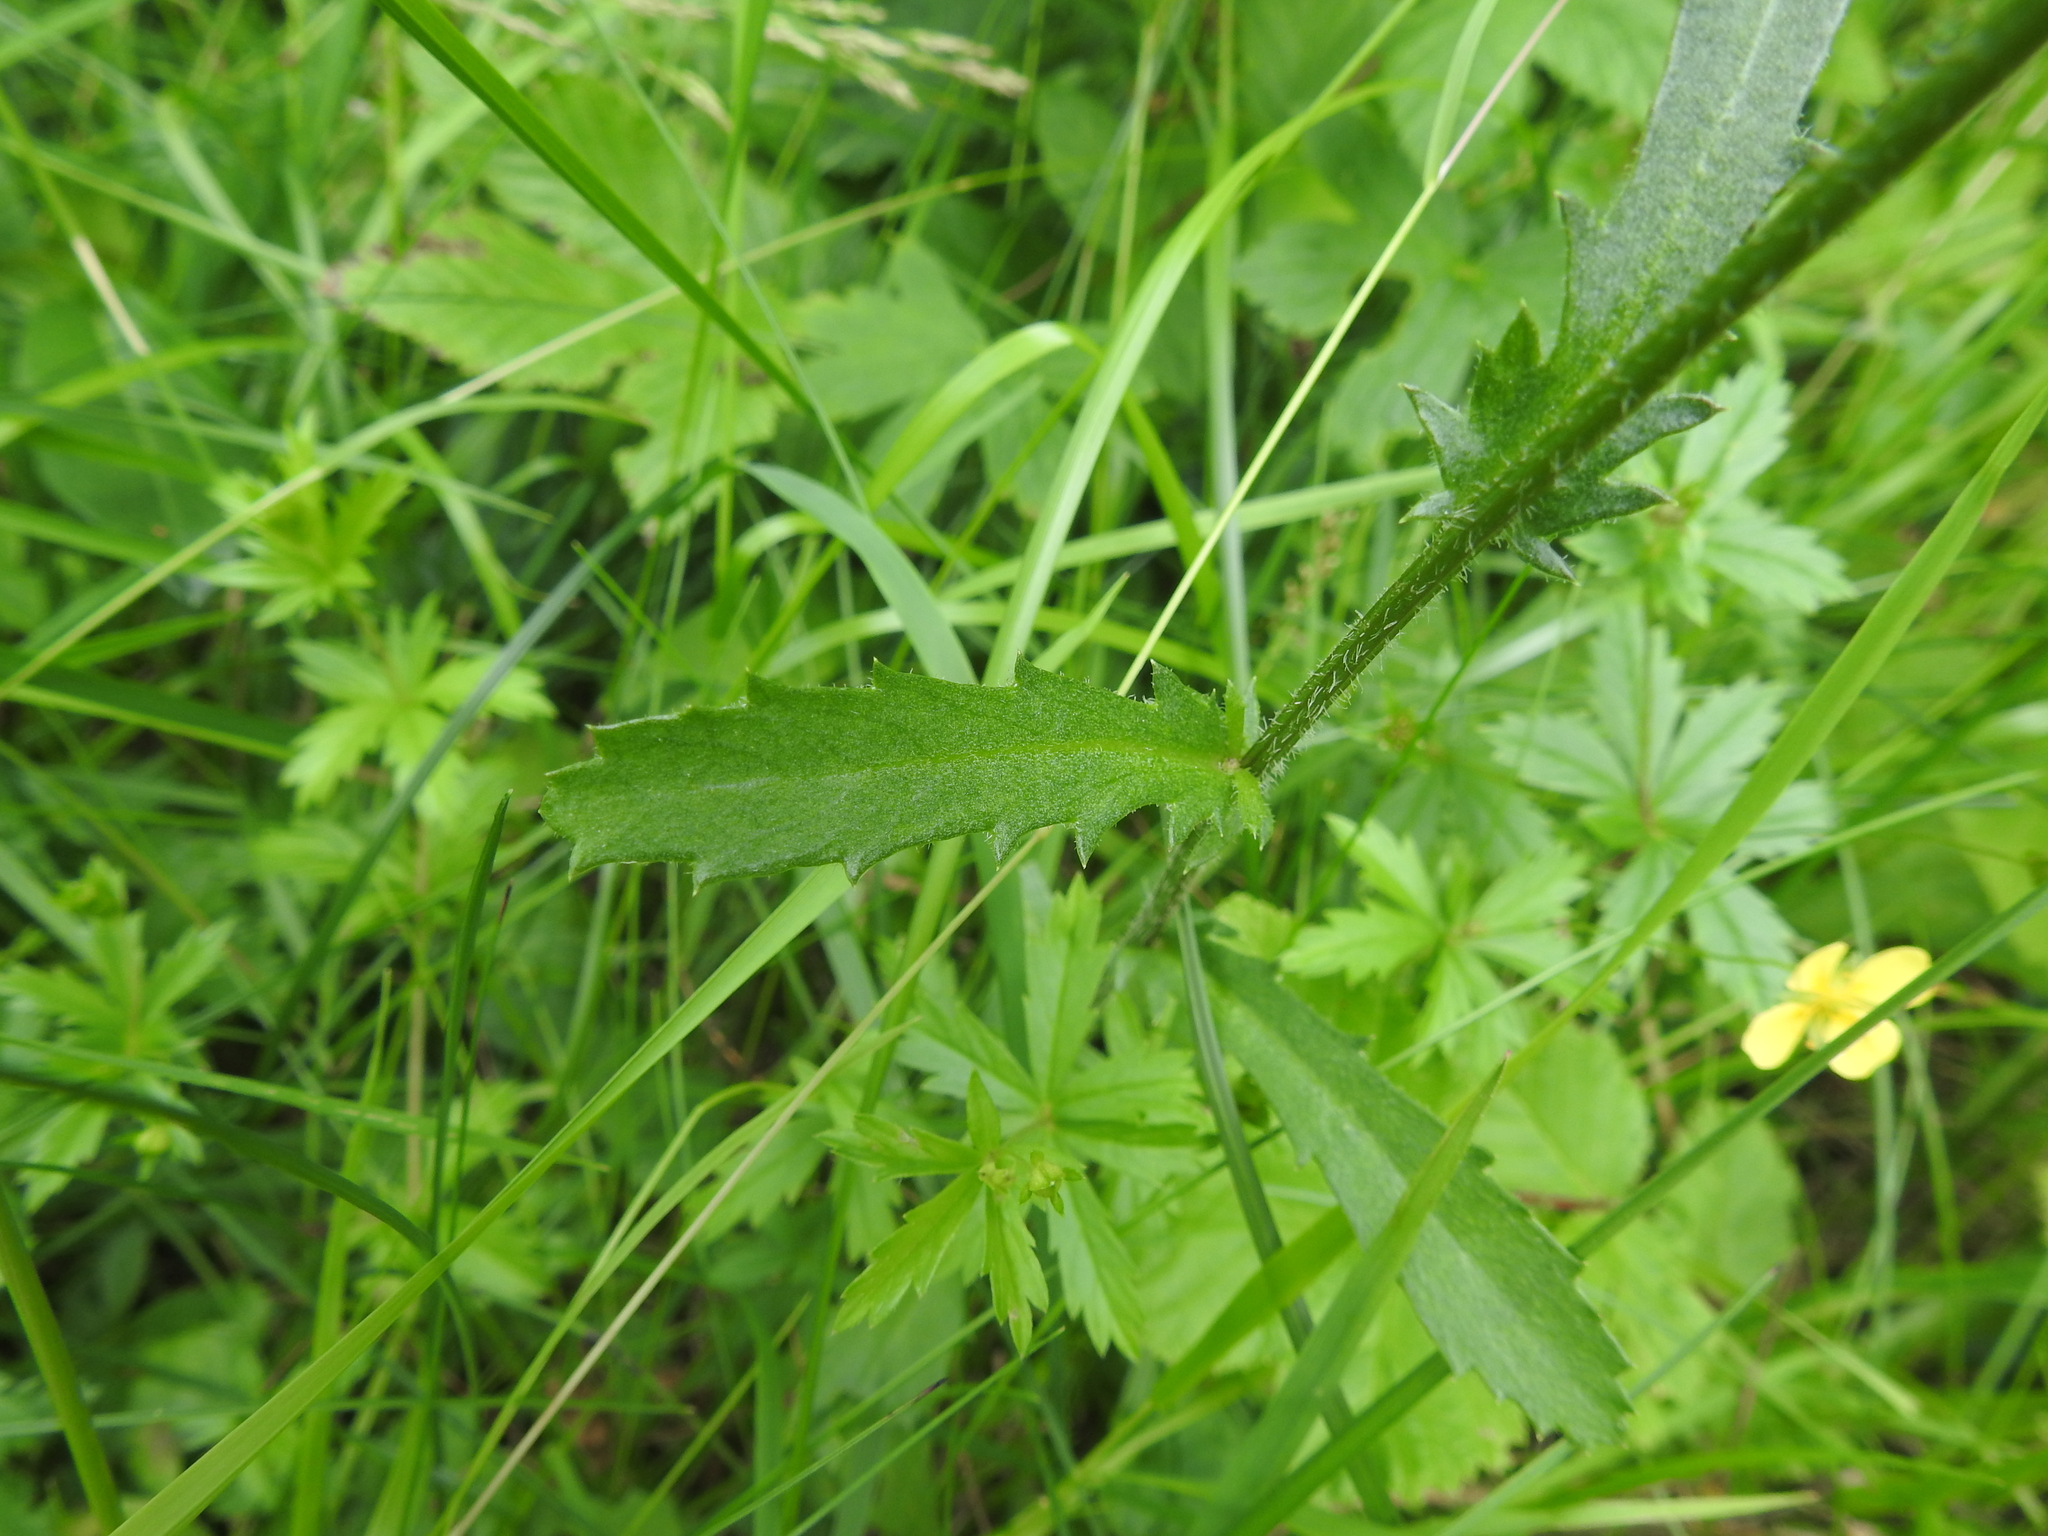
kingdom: Plantae
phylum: Tracheophyta
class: Magnoliopsida
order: Asterales
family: Asteraceae
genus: Leucanthemum
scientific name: Leucanthemum vulgare
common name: Oxeye daisy
